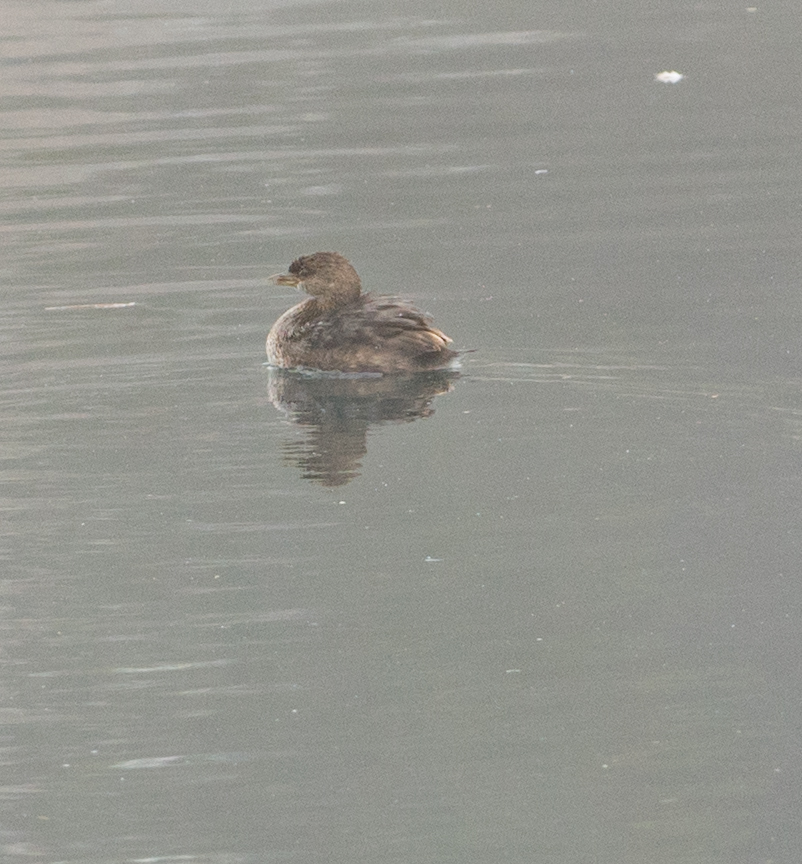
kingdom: Animalia
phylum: Chordata
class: Aves
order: Podicipediformes
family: Podicipedidae
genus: Podilymbus
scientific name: Podilymbus podiceps
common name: Pied-billed grebe
